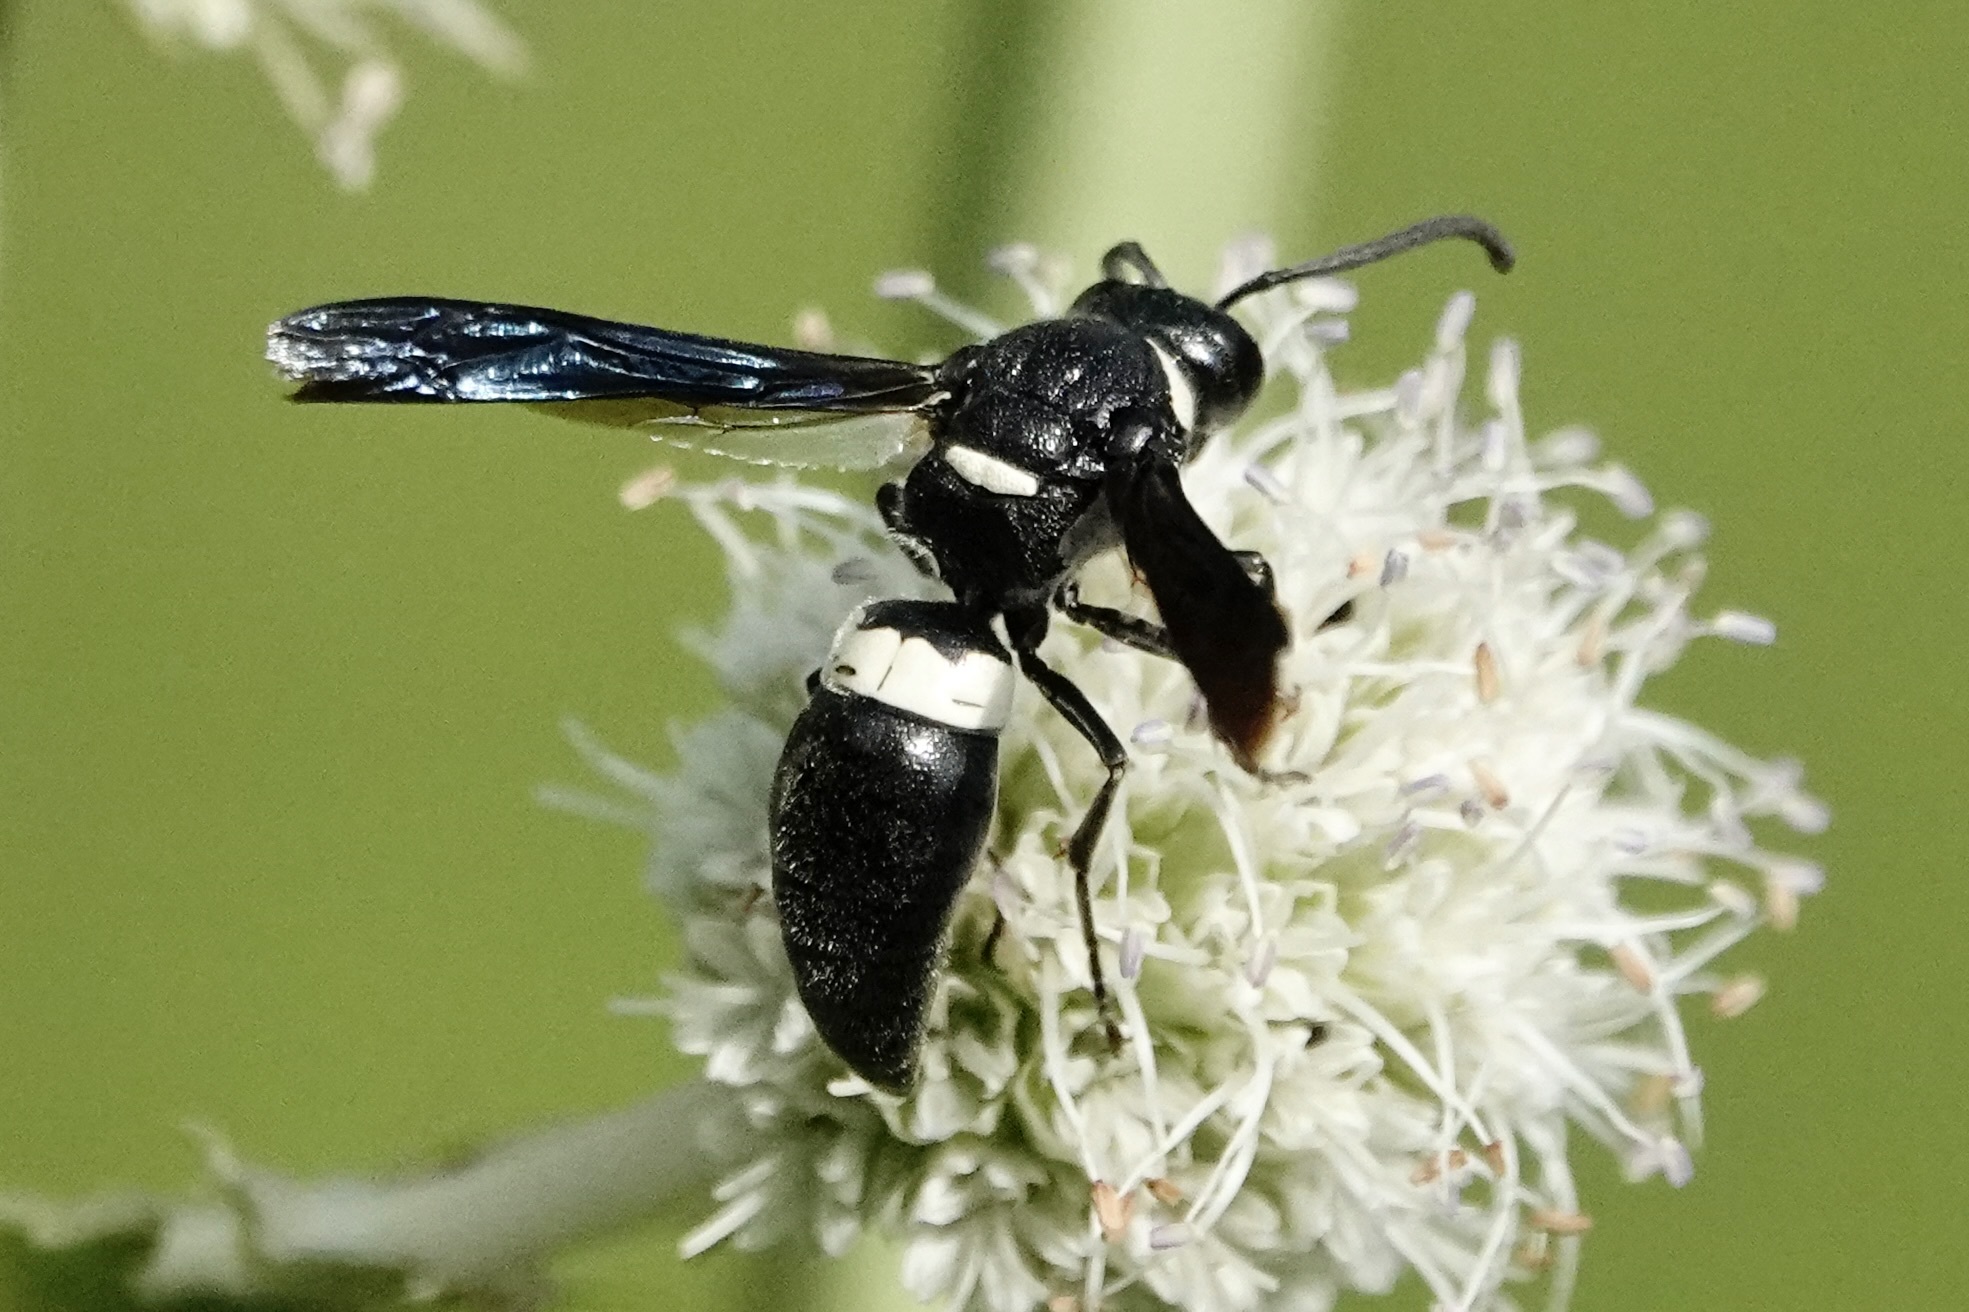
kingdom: Animalia
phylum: Arthropoda
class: Insecta
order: Hymenoptera
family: Eumenidae
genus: Monobia
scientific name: Monobia quadridens
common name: Four-toothed mason wasp
